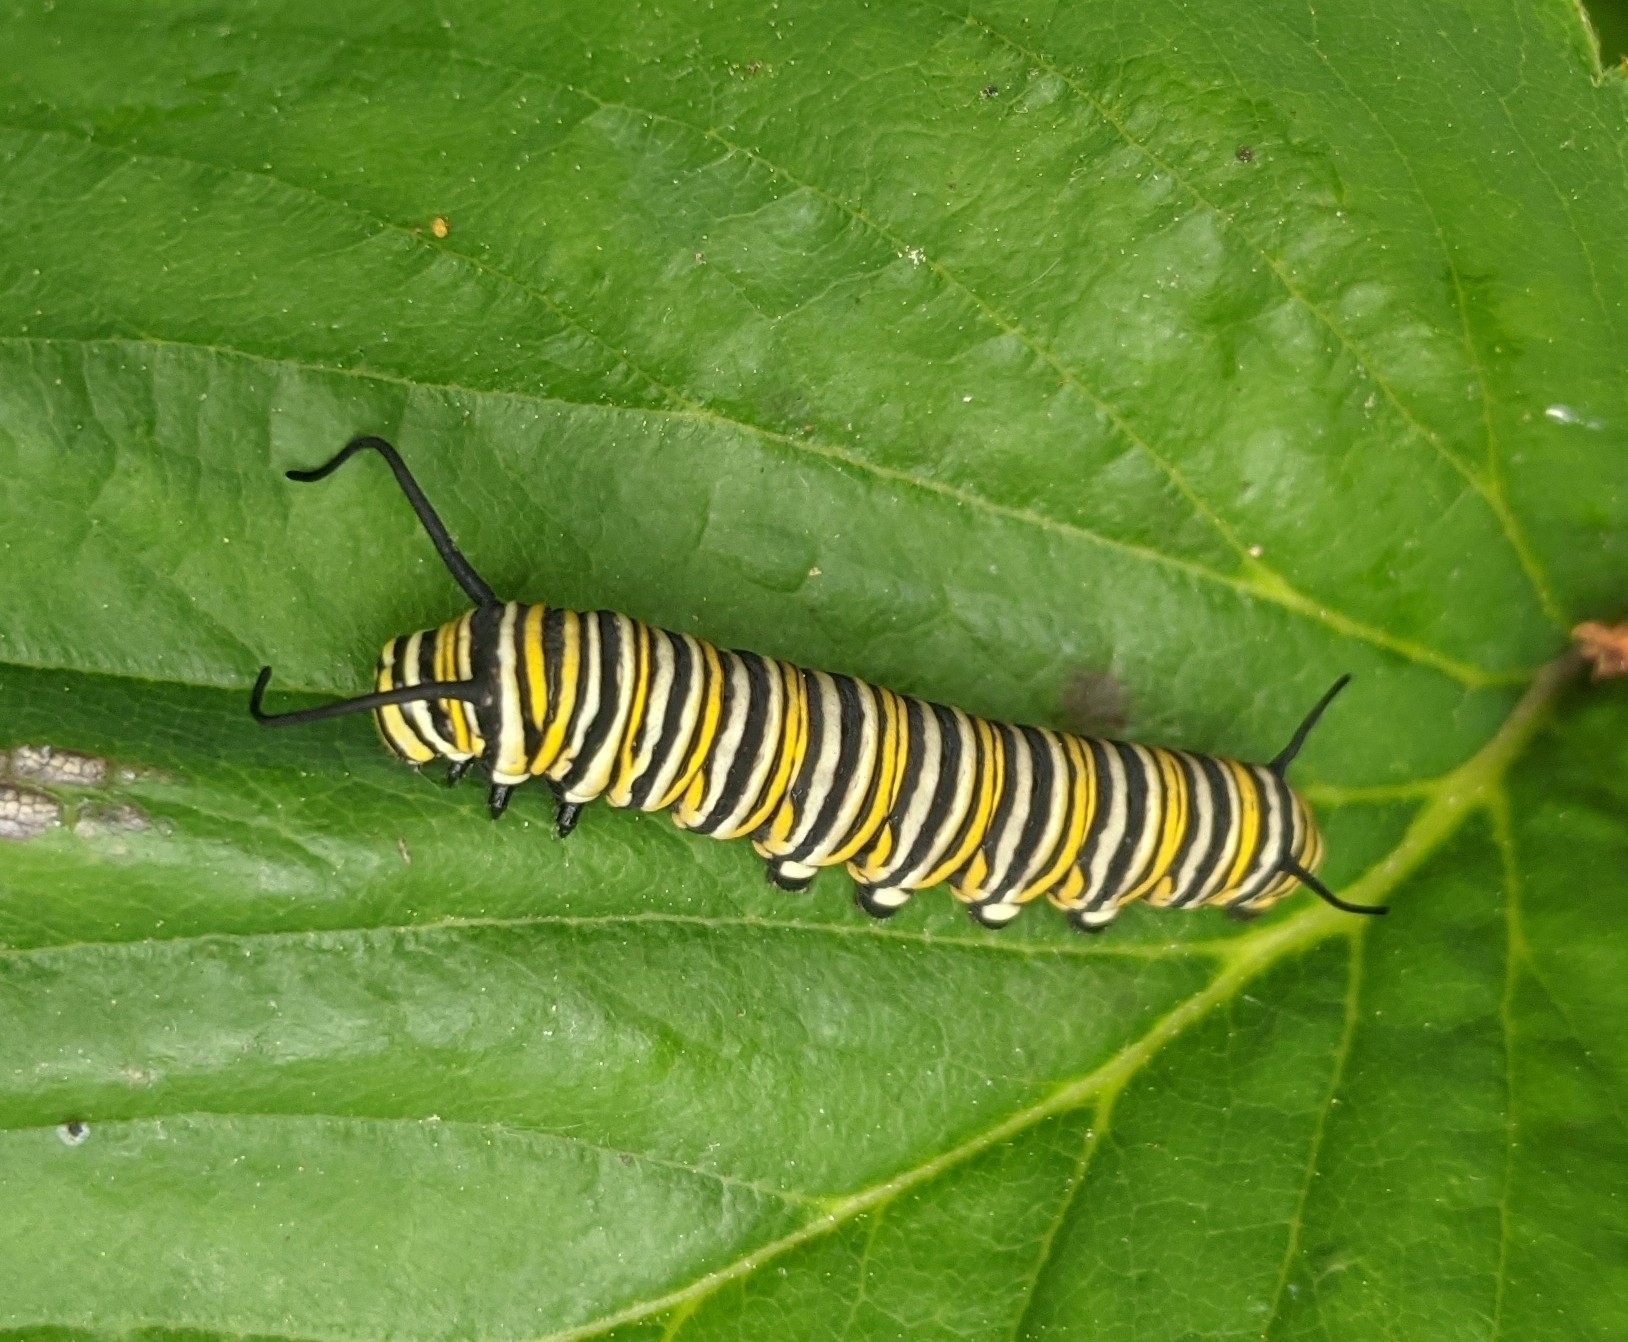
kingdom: Animalia
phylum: Arthropoda
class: Insecta
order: Lepidoptera
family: Nymphalidae
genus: Danaus
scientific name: Danaus plexippus
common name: Monarch
